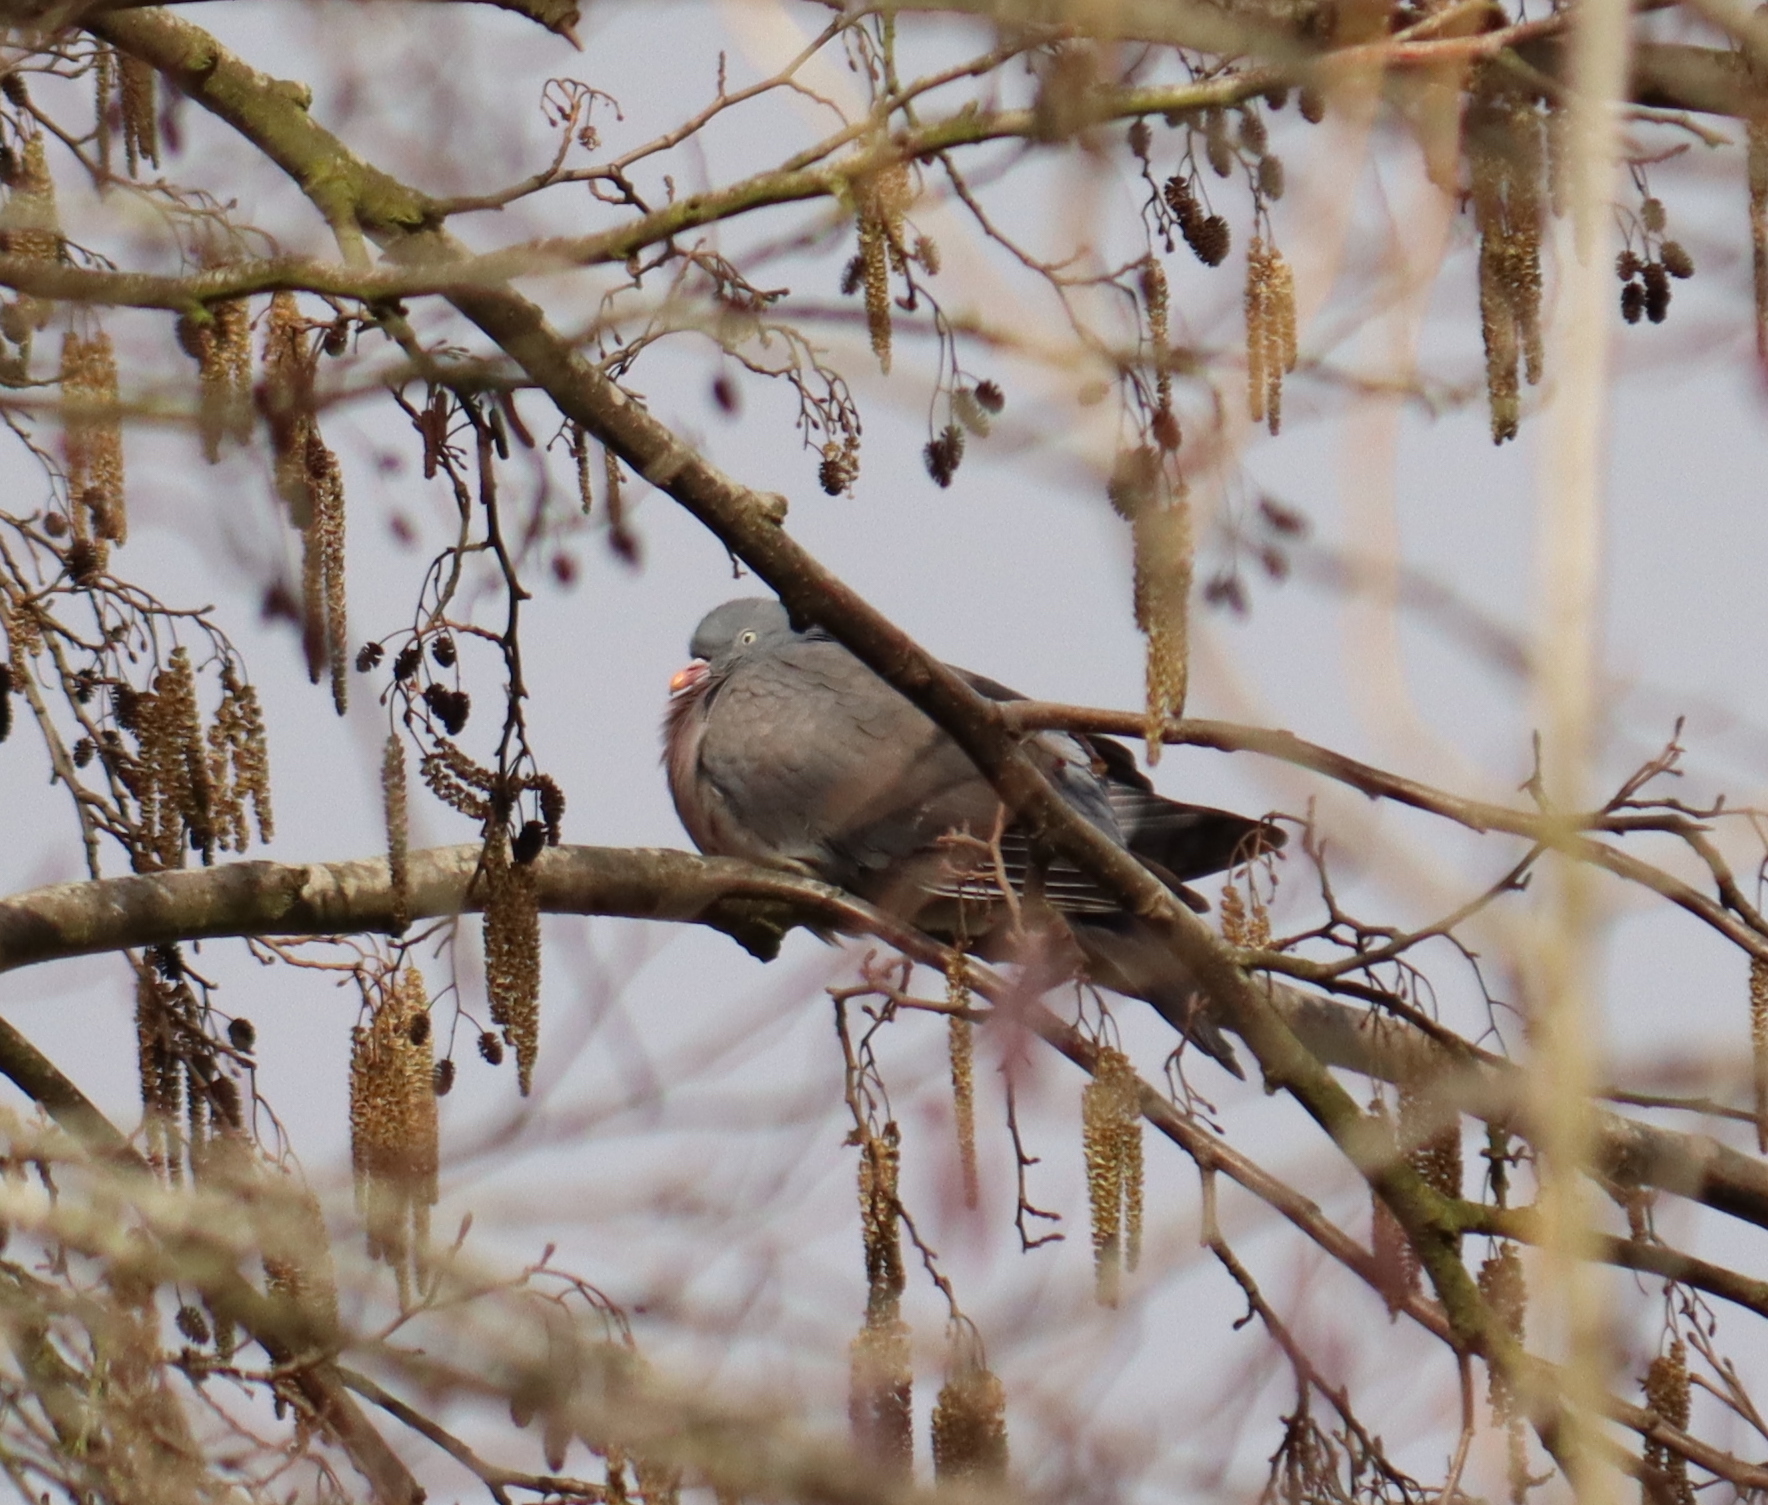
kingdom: Animalia
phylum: Chordata
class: Aves
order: Columbiformes
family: Columbidae
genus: Columba
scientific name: Columba palumbus
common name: Common wood pigeon
